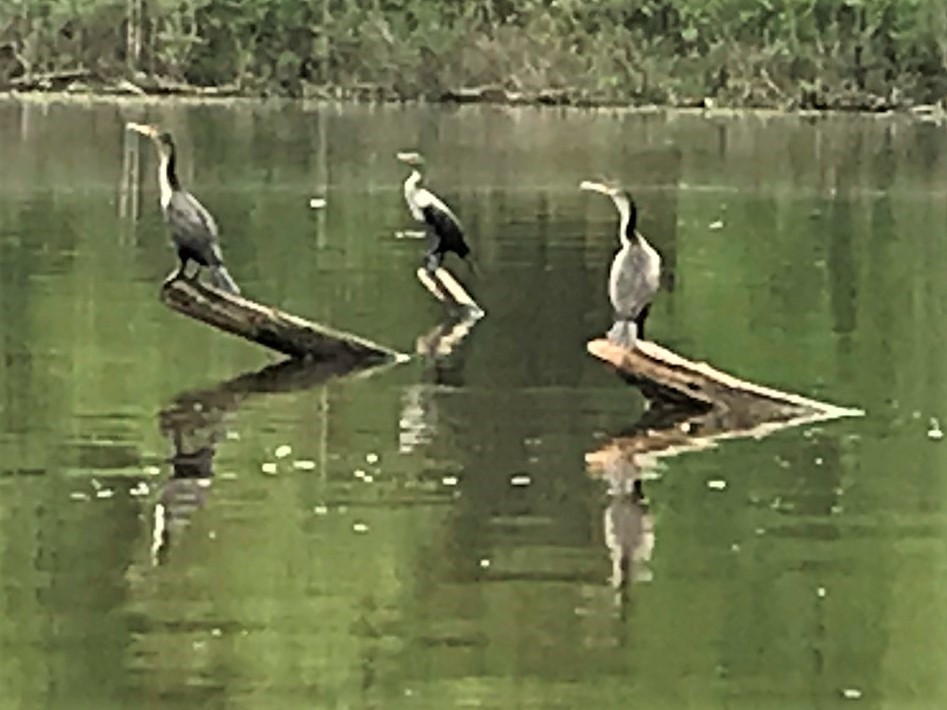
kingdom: Animalia
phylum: Chordata
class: Aves
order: Suliformes
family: Phalacrocoracidae
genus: Phalacrocorax
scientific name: Phalacrocorax auritus
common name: Double-crested cormorant
